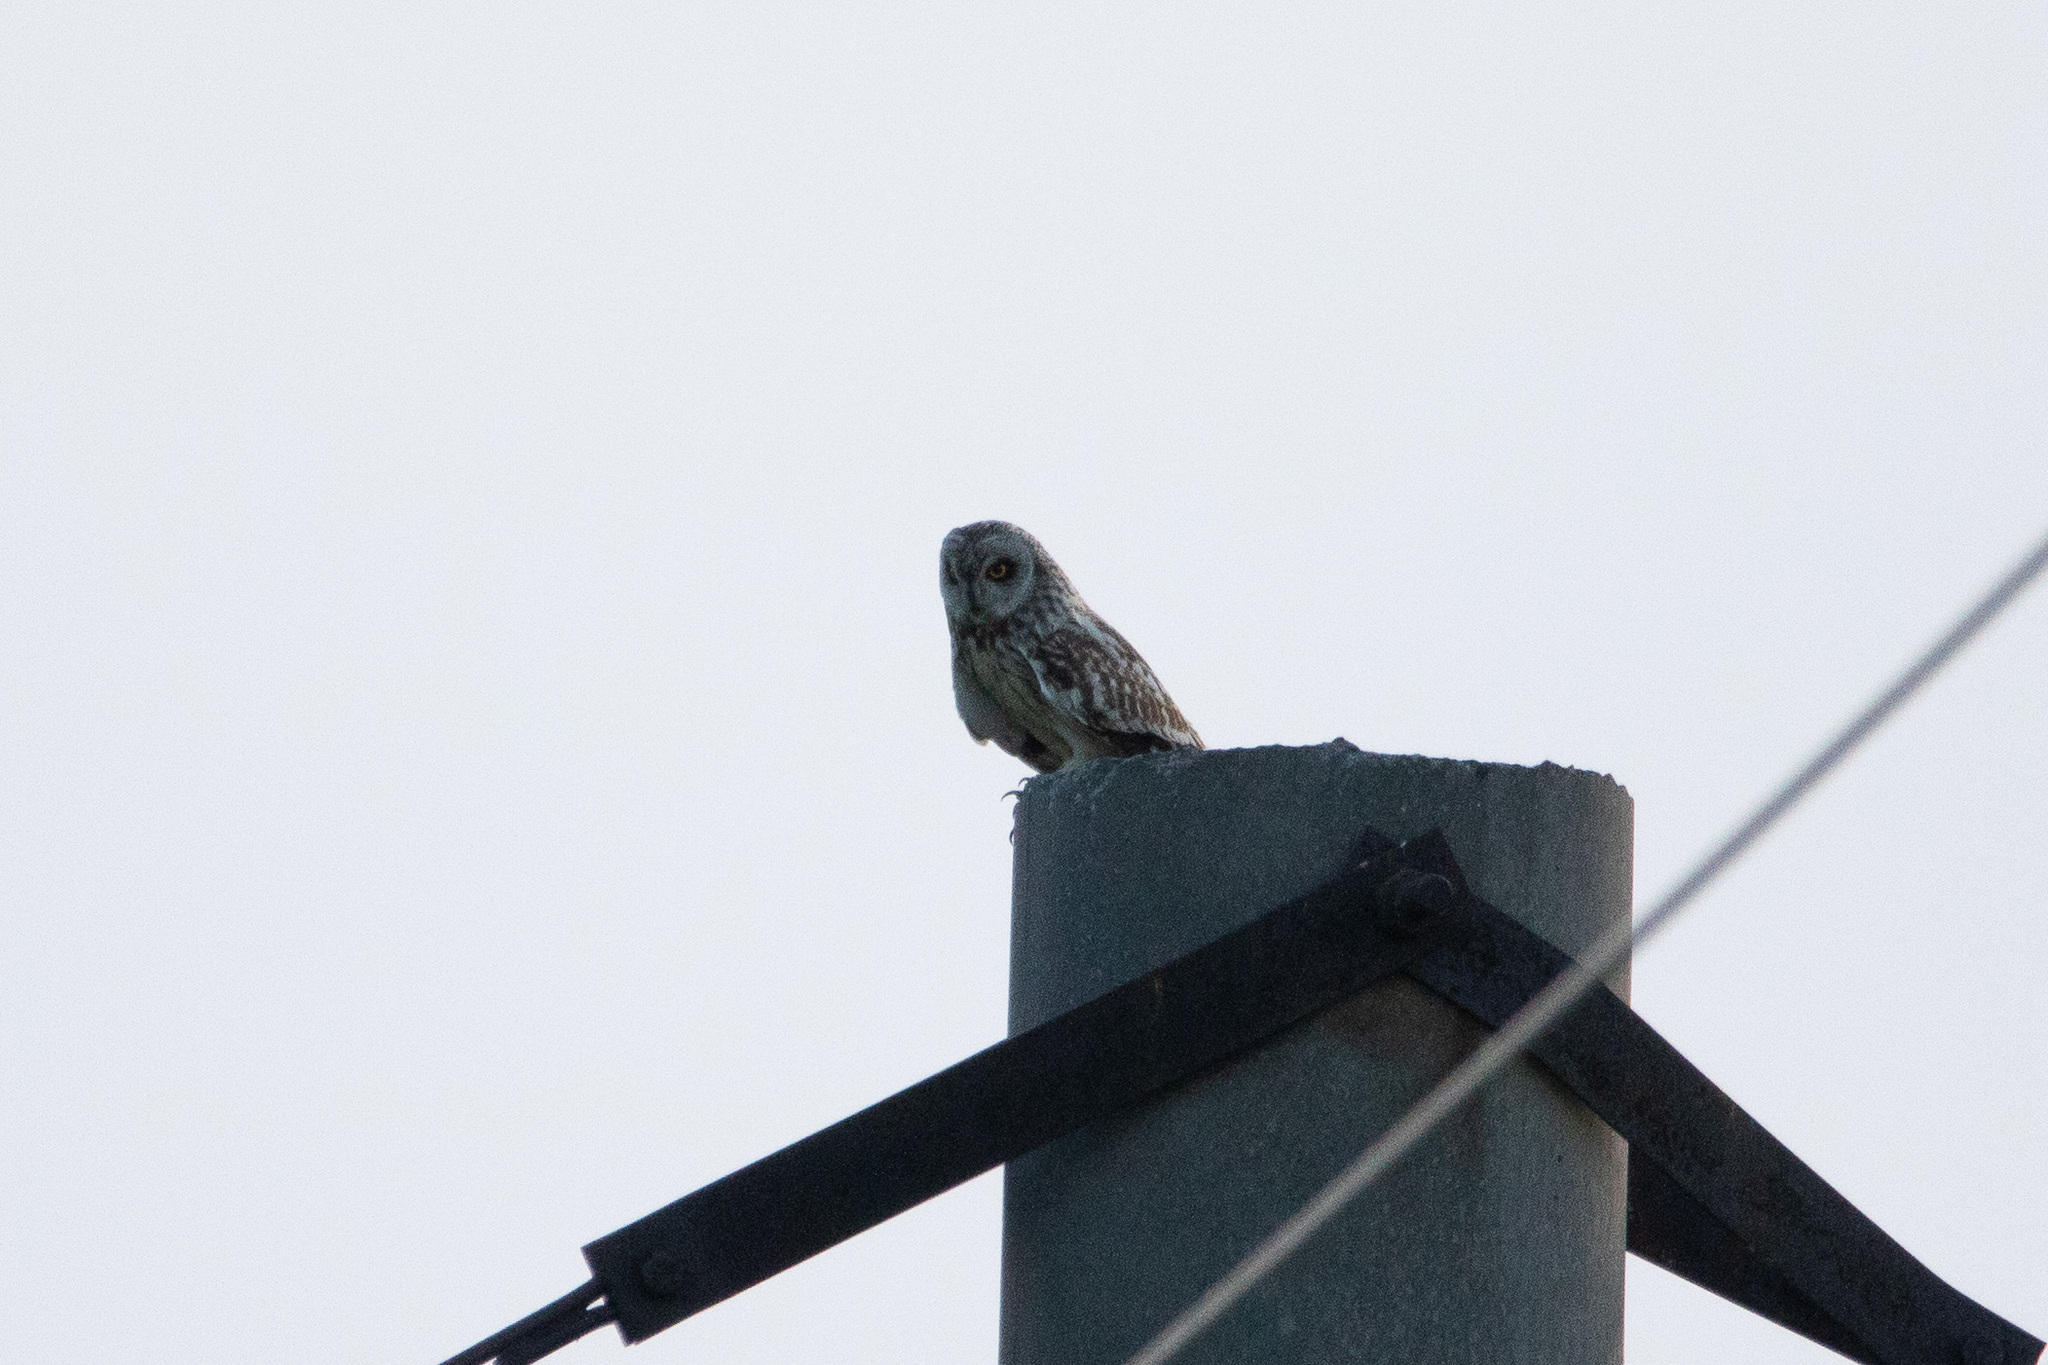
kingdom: Animalia
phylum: Chordata
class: Aves
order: Strigiformes
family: Strigidae
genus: Asio
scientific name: Asio flammeus
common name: Short-eared owl
